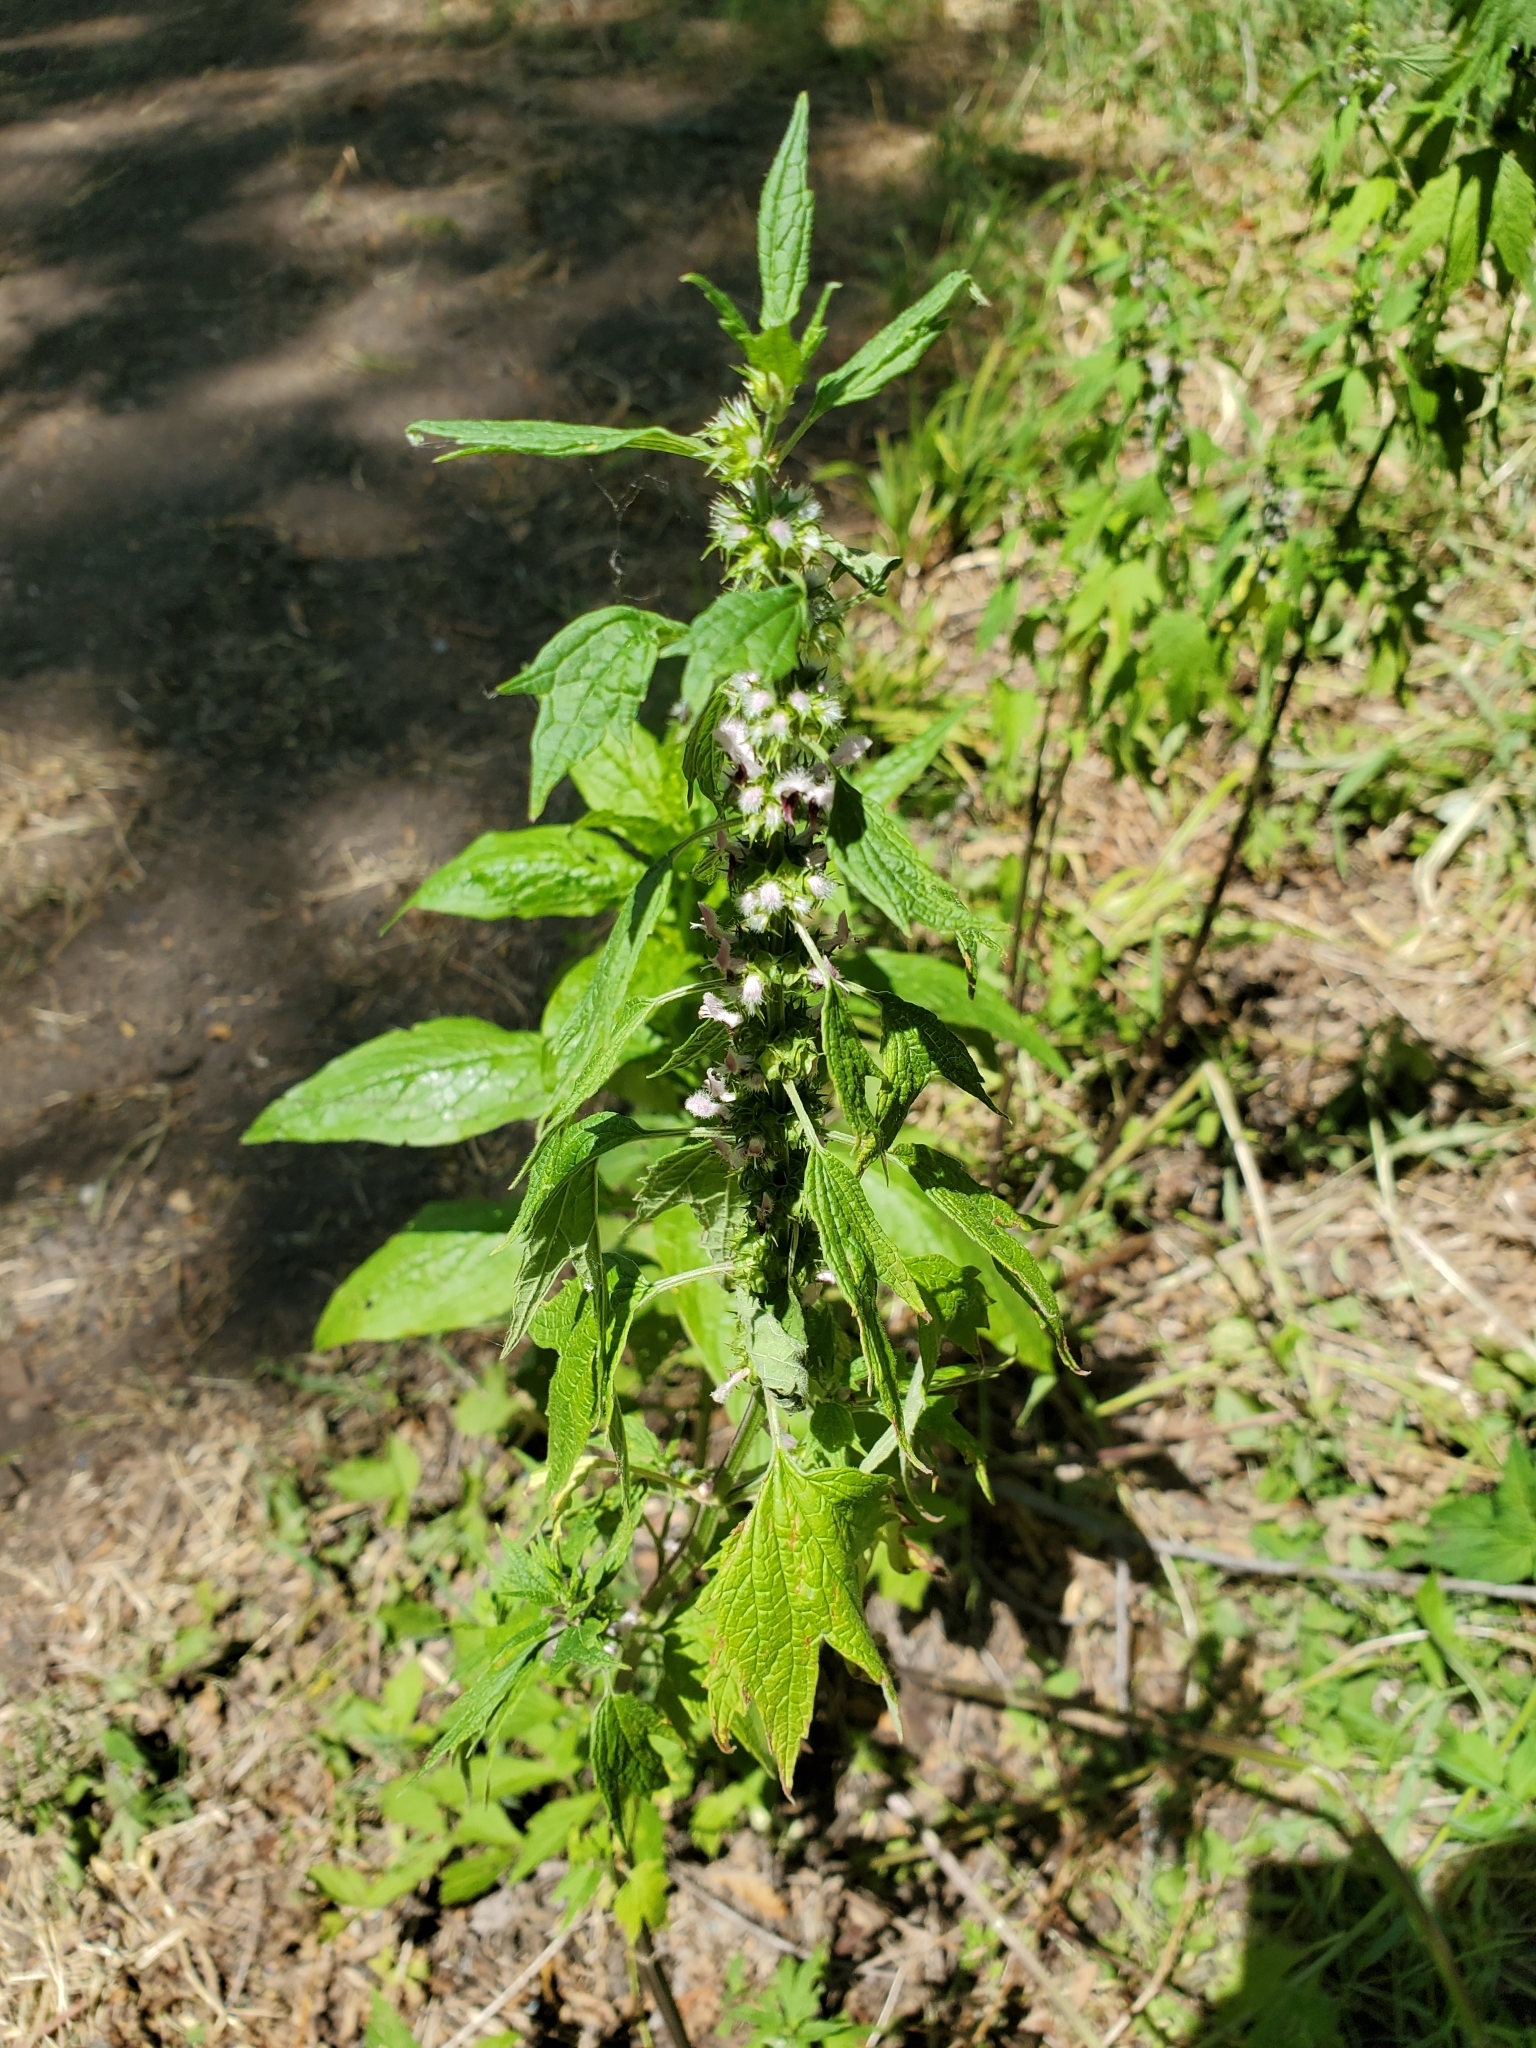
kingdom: Plantae
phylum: Tracheophyta
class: Magnoliopsida
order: Lamiales
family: Lamiaceae
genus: Leonurus
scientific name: Leonurus cardiaca
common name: Motherwort
